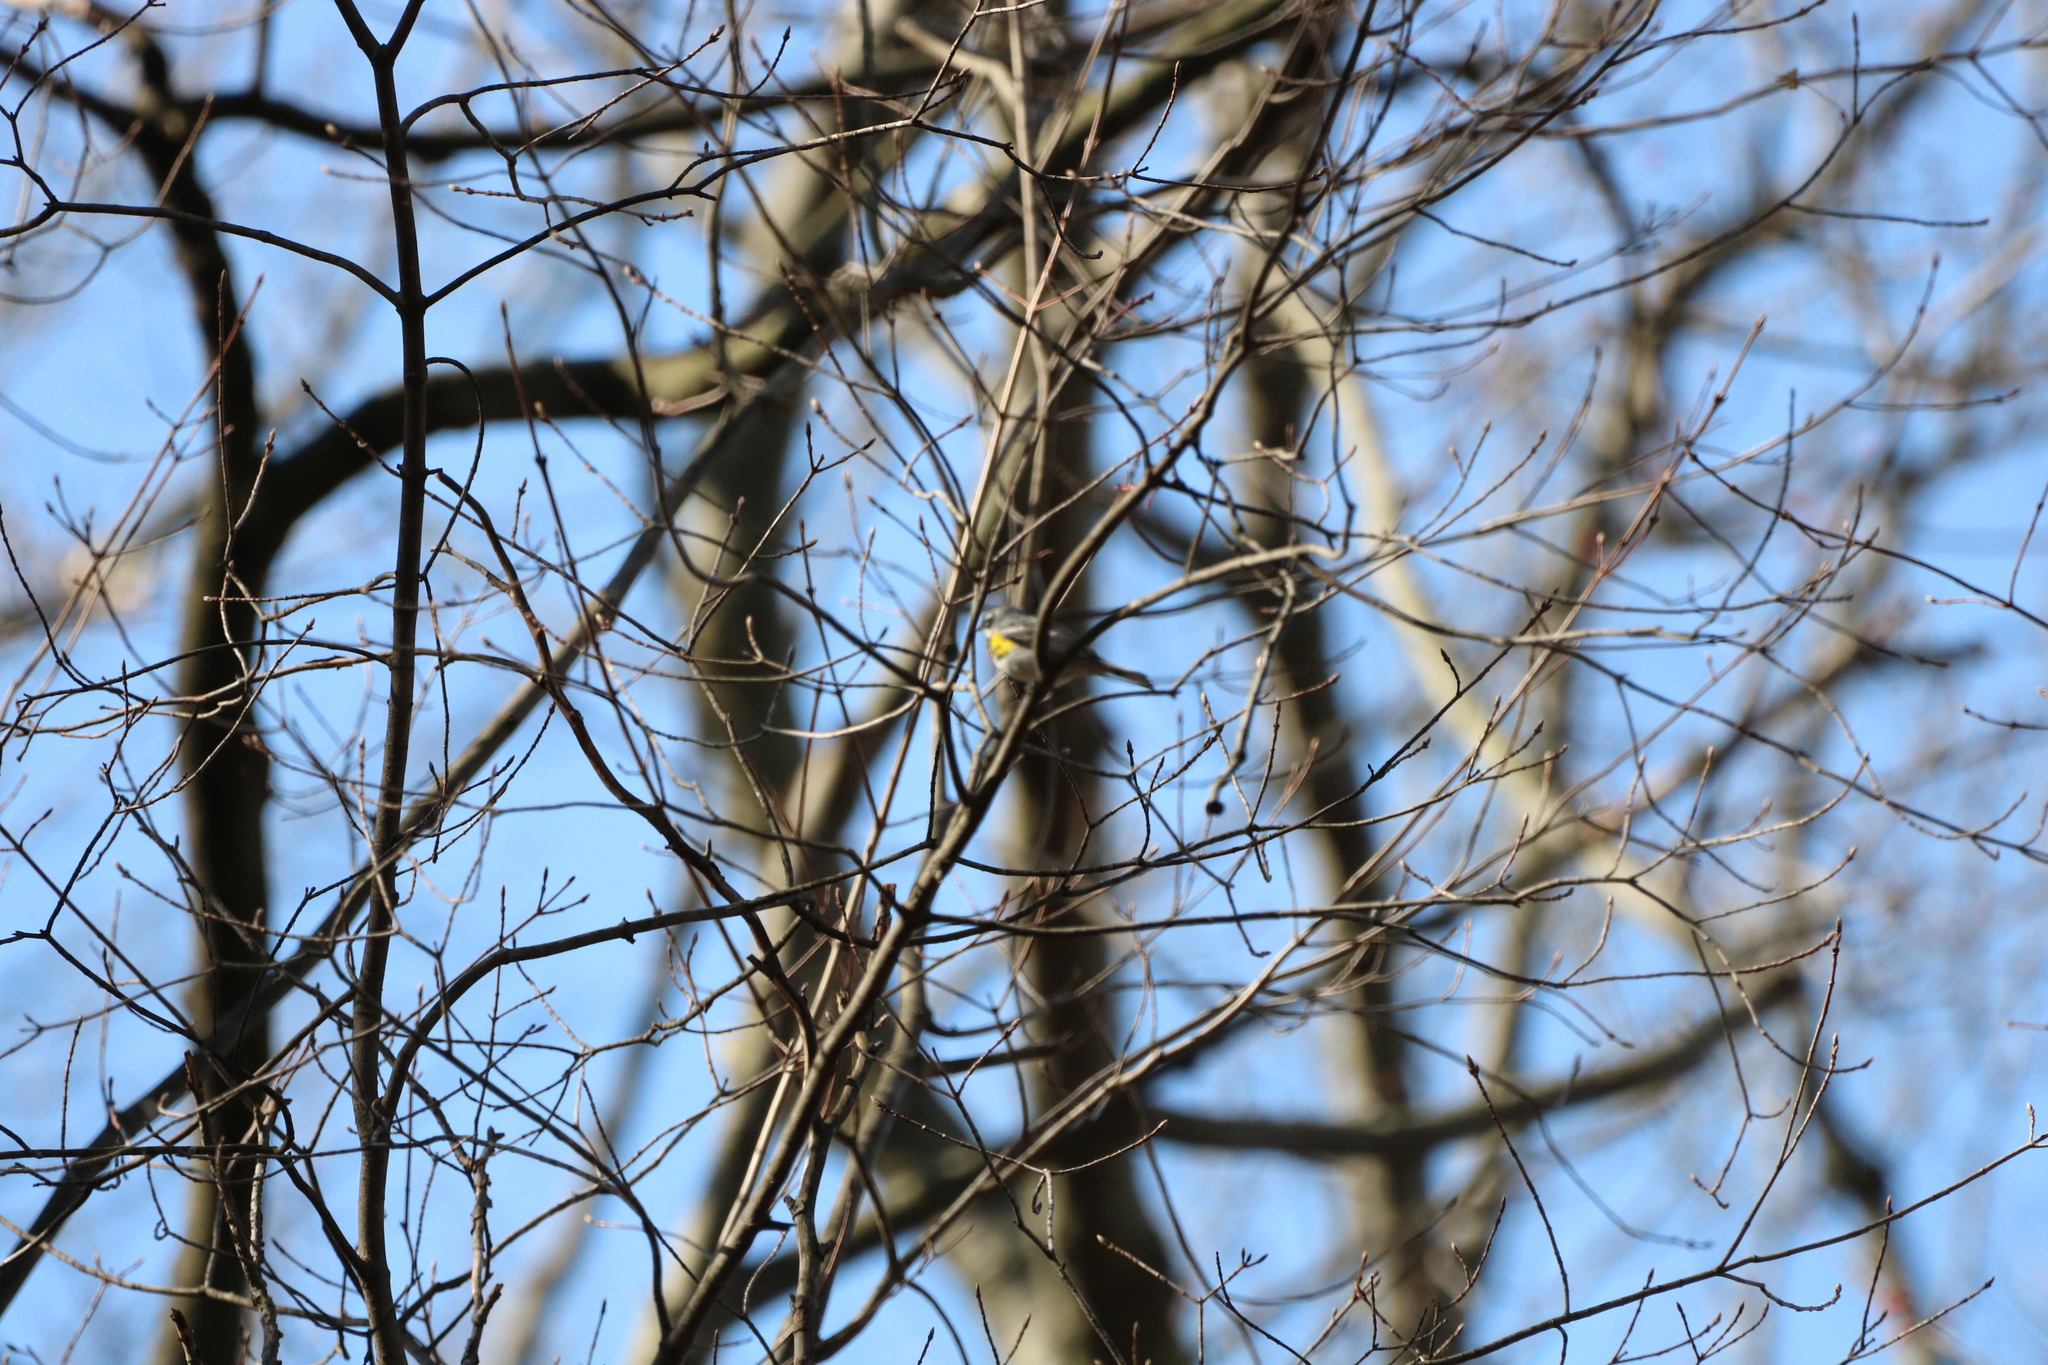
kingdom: Animalia
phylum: Chordata
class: Aves
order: Passeriformes
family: Parulidae
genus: Setophaga
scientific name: Setophaga coronata
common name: Myrtle warbler
